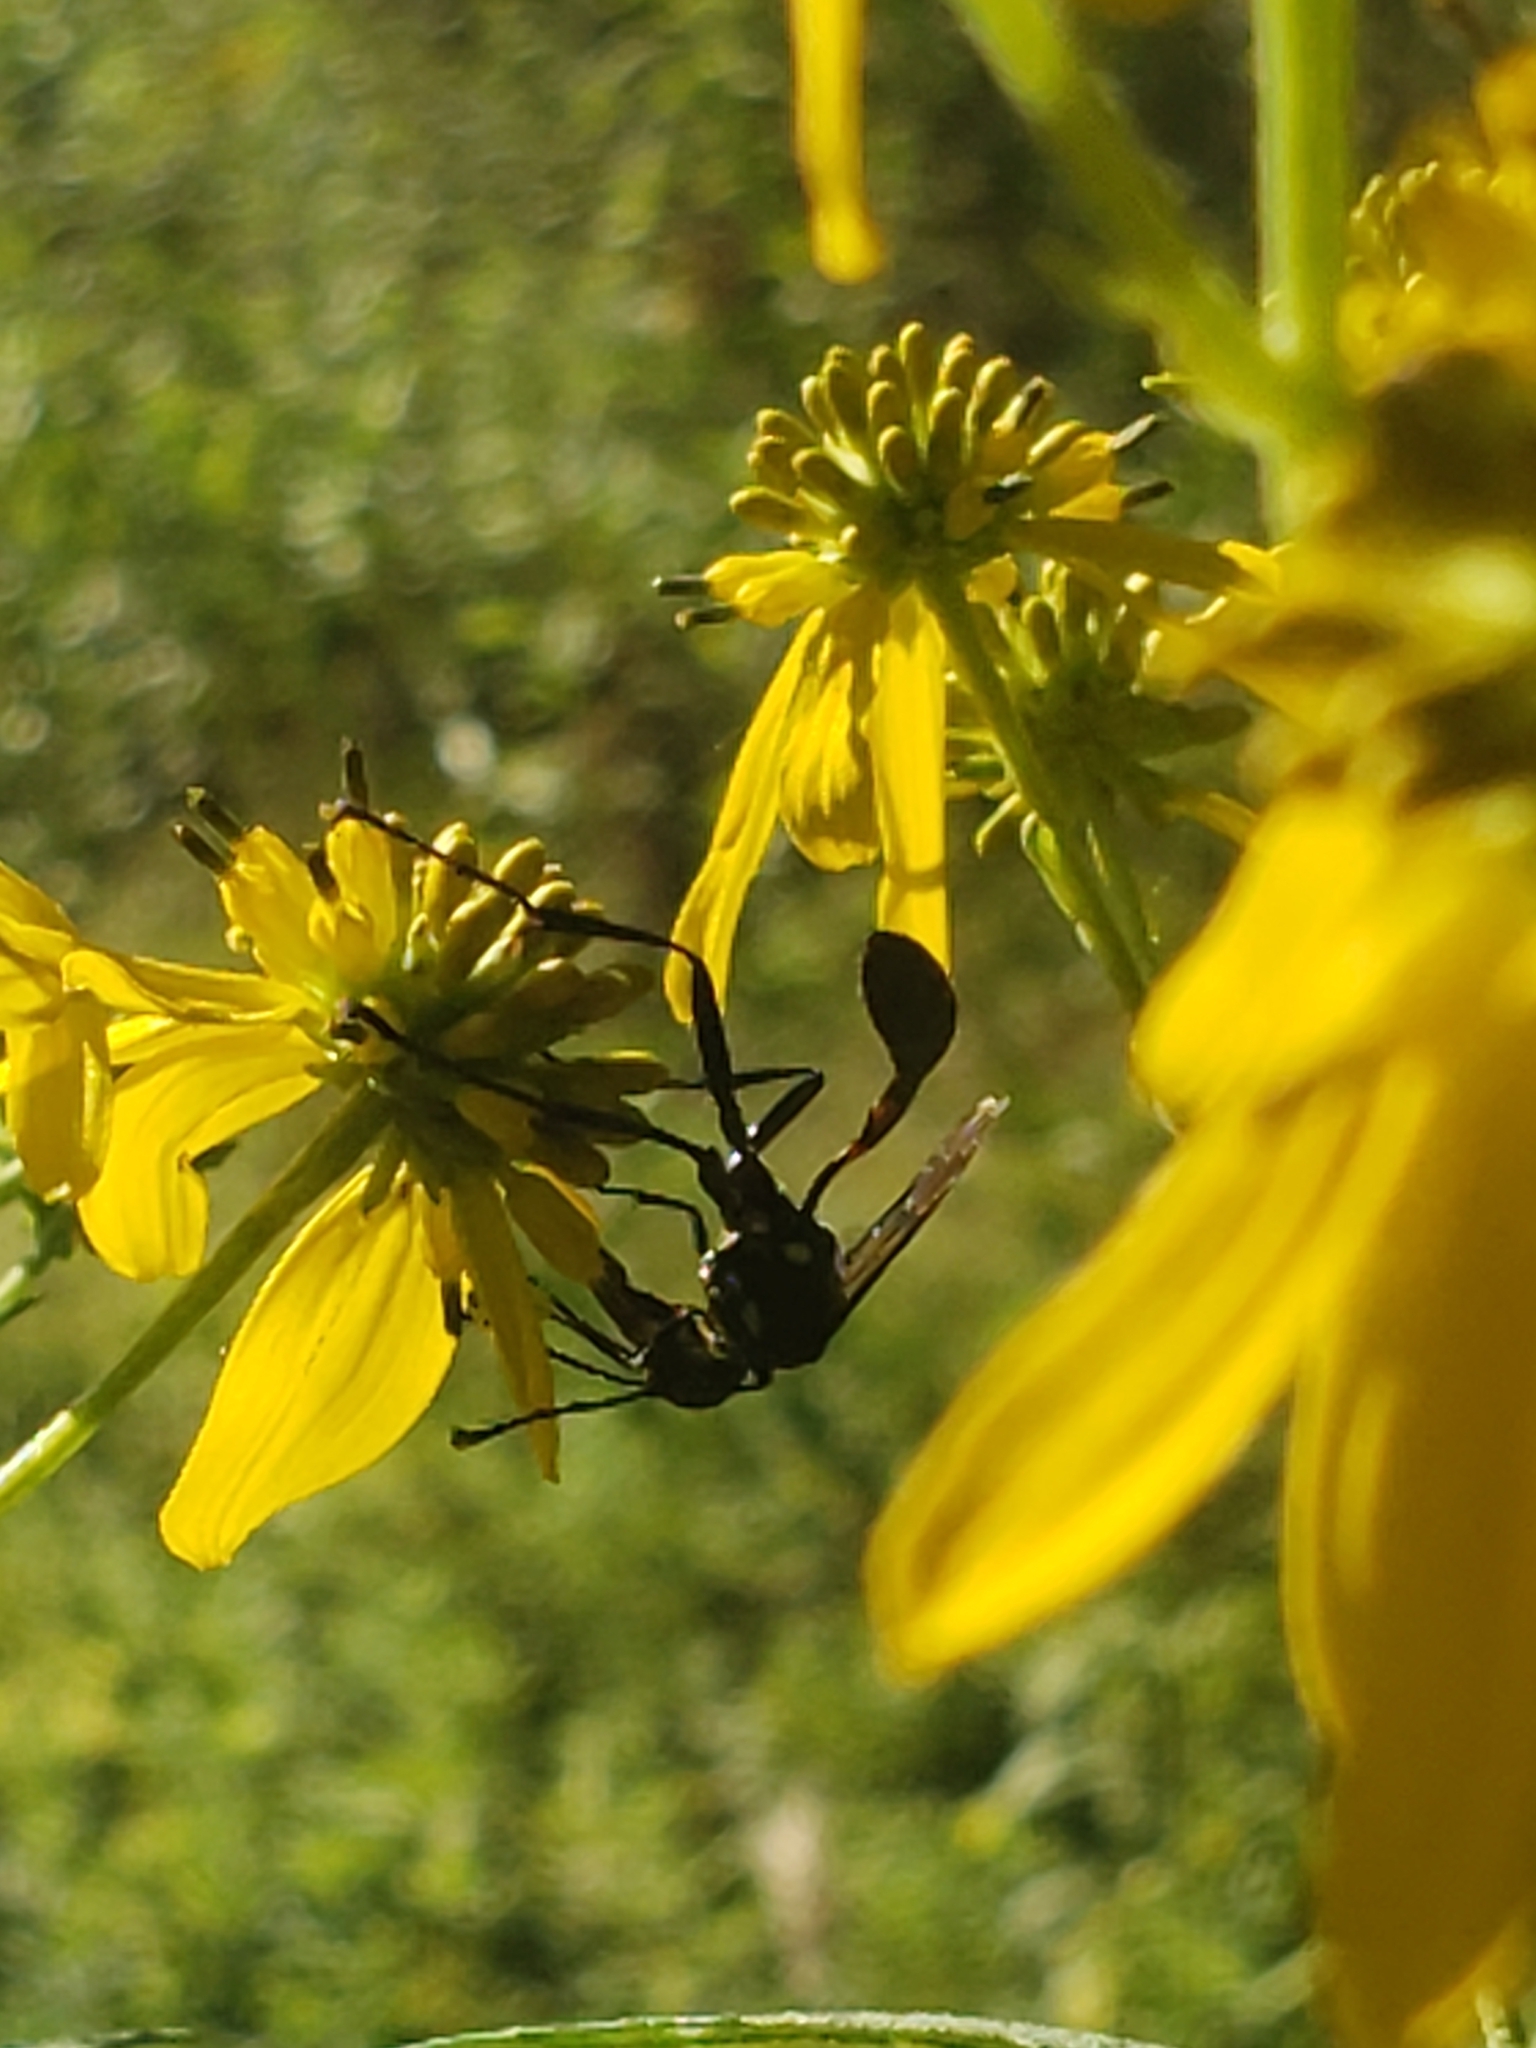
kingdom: Animalia
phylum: Arthropoda
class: Insecta
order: Hymenoptera
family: Sphecidae
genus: Eremnophila
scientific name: Eremnophila aureonotata
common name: Gold-marked thread-waisted wasp
